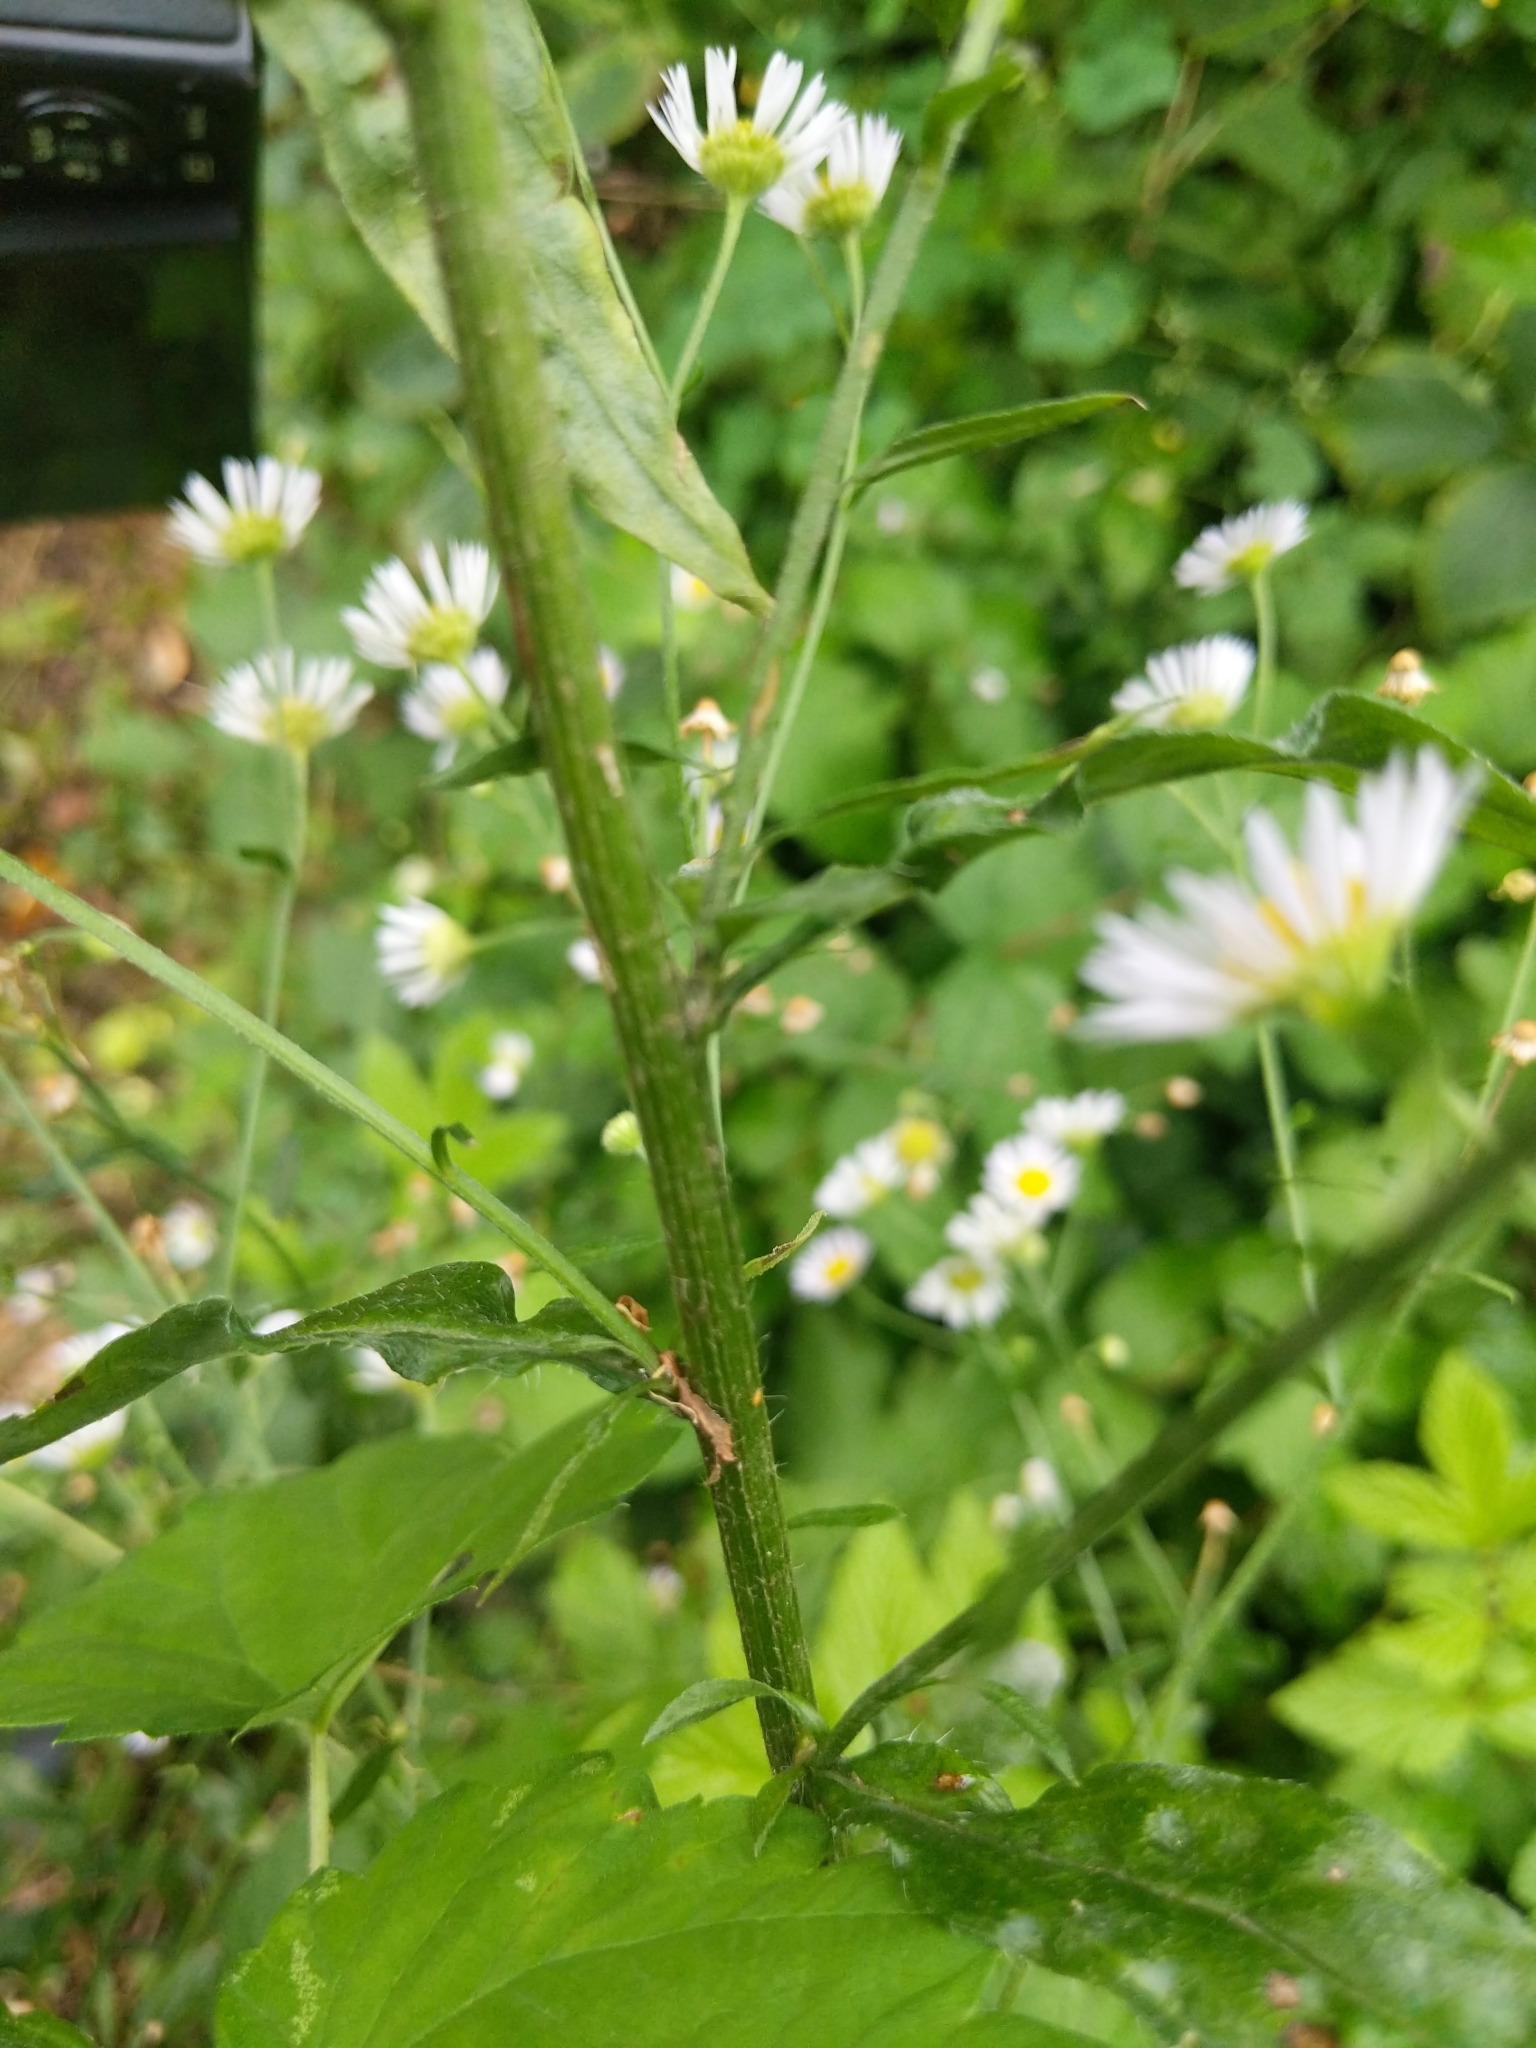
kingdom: Plantae
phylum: Tracheophyta
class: Magnoliopsida
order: Asterales
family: Asteraceae
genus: Erigeron
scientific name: Erigeron annuus
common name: Tall fleabane
